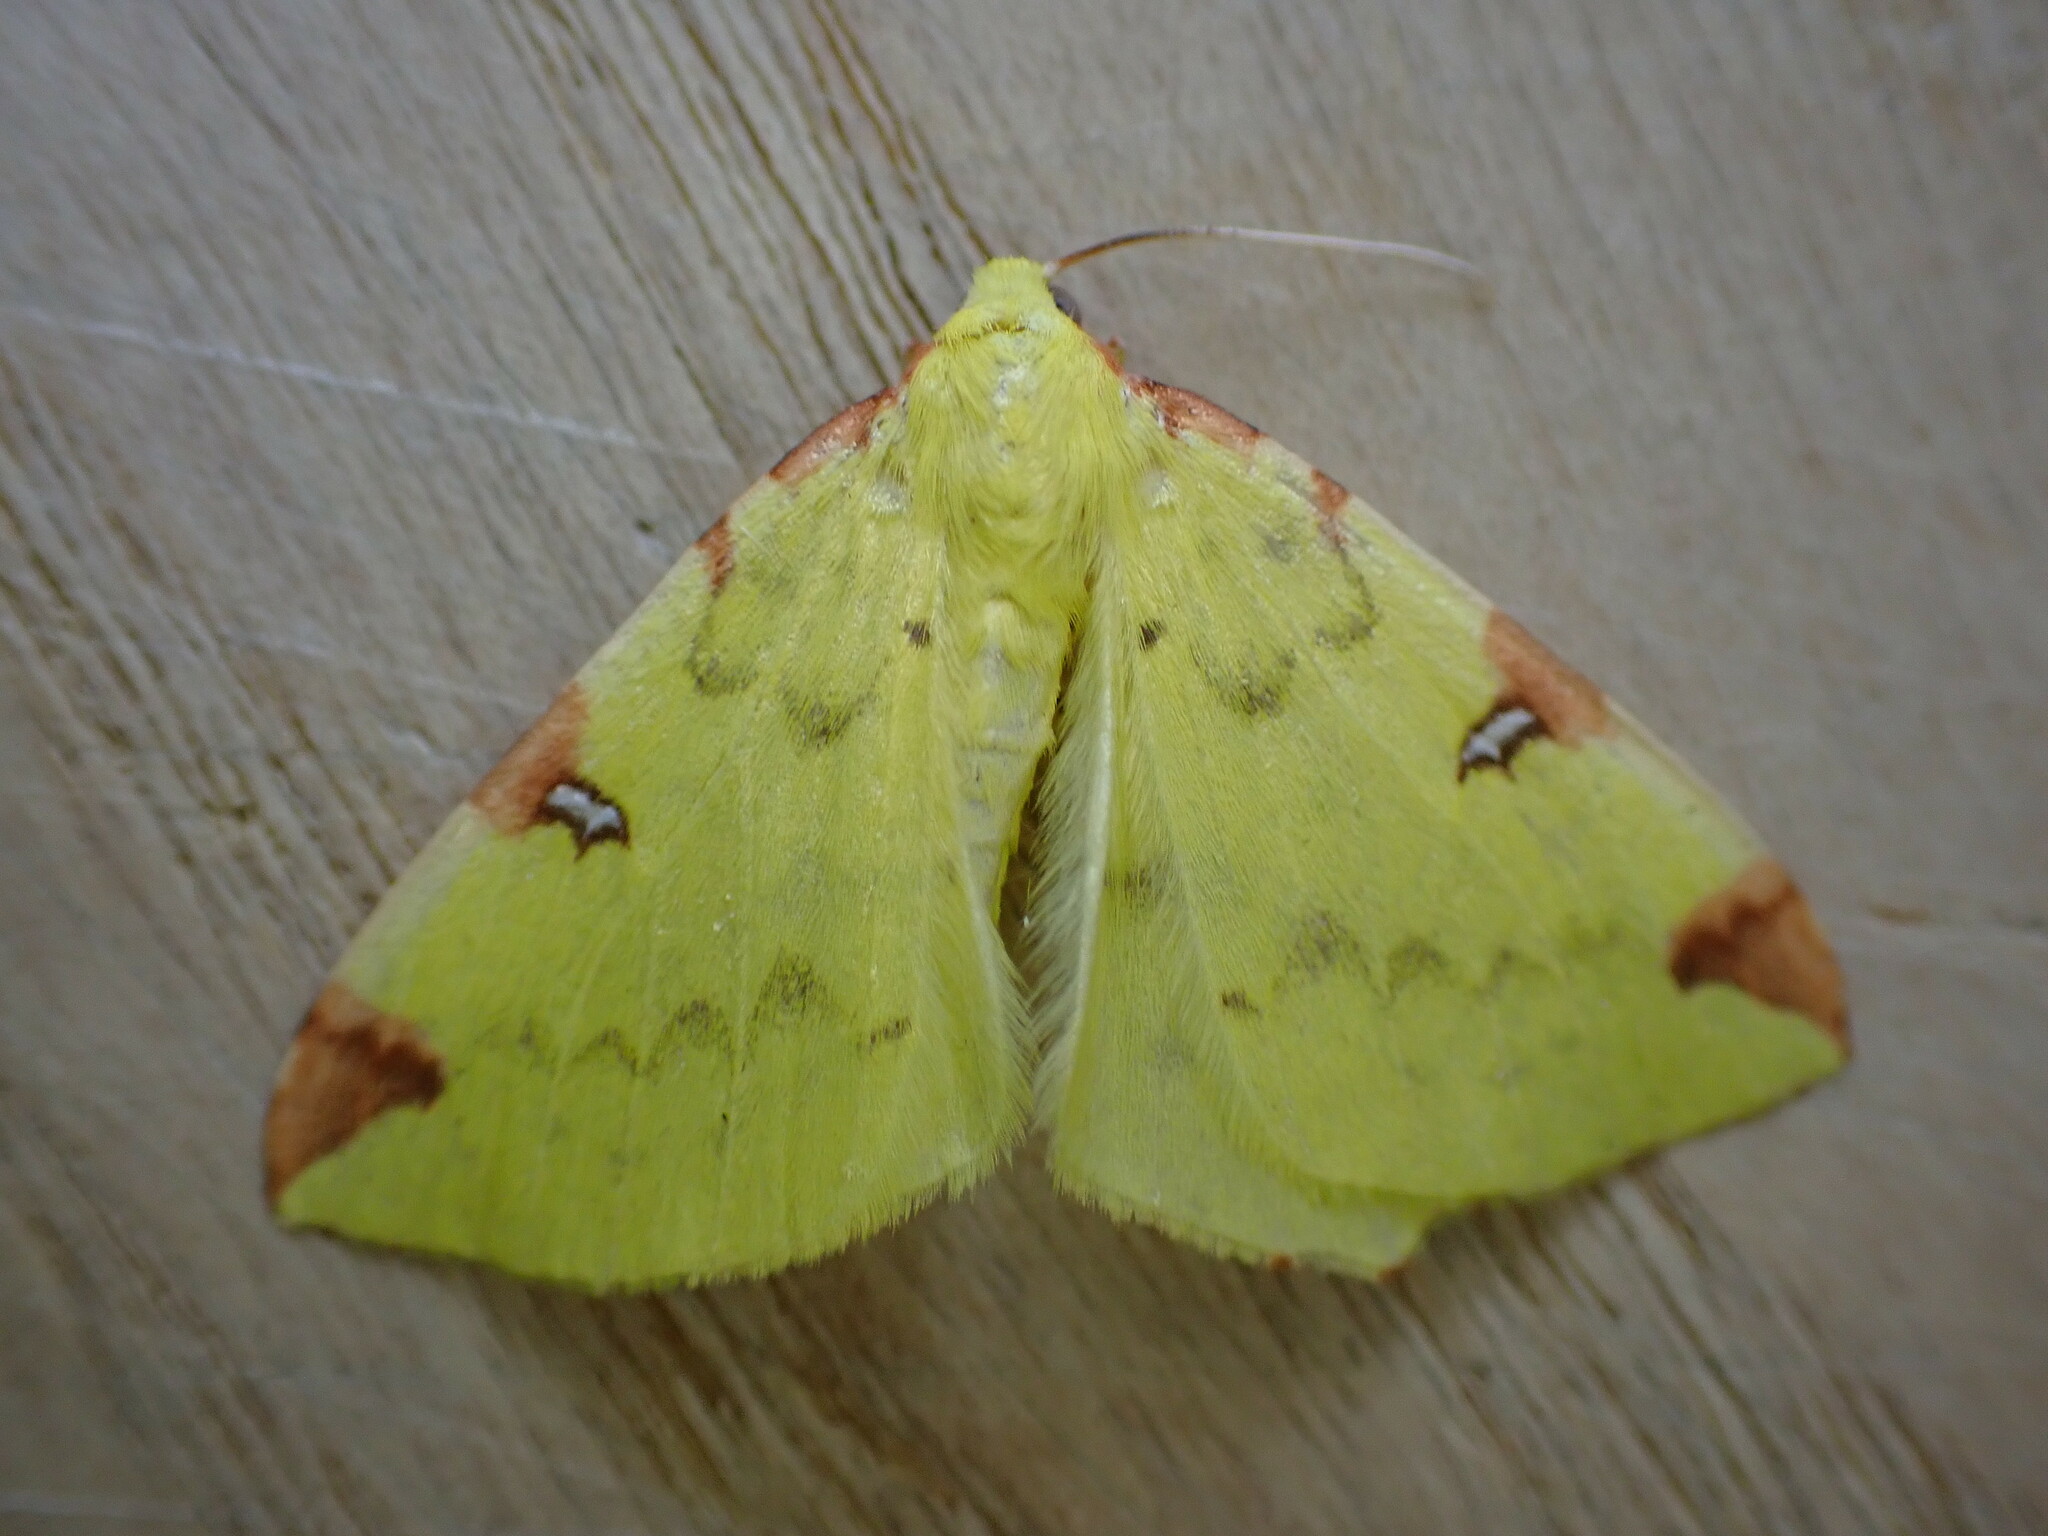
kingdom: Animalia
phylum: Arthropoda
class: Insecta
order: Lepidoptera
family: Geometridae
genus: Opisthograptis
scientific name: Opisthograptis luteolata
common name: Brimstone moth
